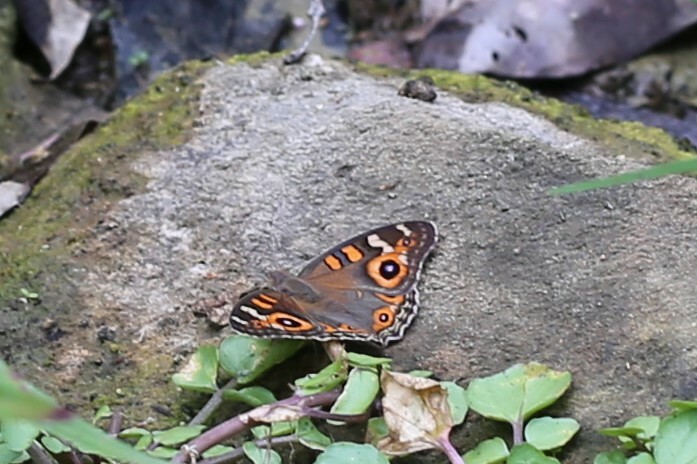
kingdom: Animalia
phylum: Arthropoda
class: Insecta
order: Lepidoptera
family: Nymphalidae
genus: Junonia
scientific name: Junonia villida
